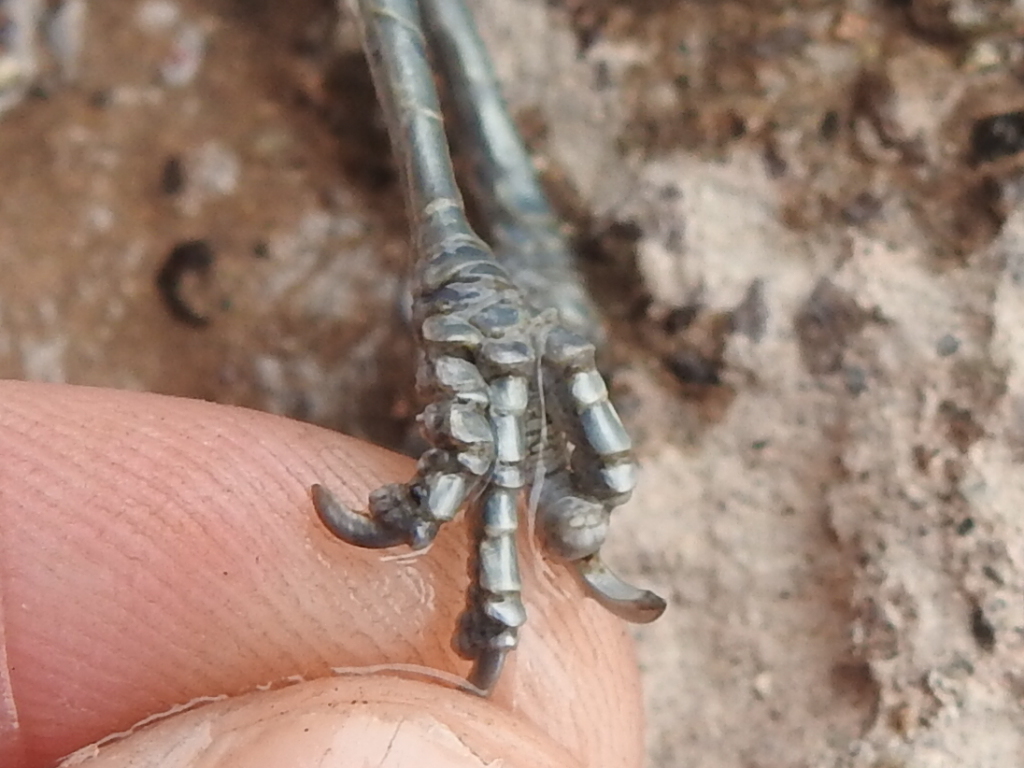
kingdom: Animalia
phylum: Chordata
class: Aves
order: Passeriformes
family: Remizidae
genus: Auriparus
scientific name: Auriparus flaviceps
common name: Verdin
